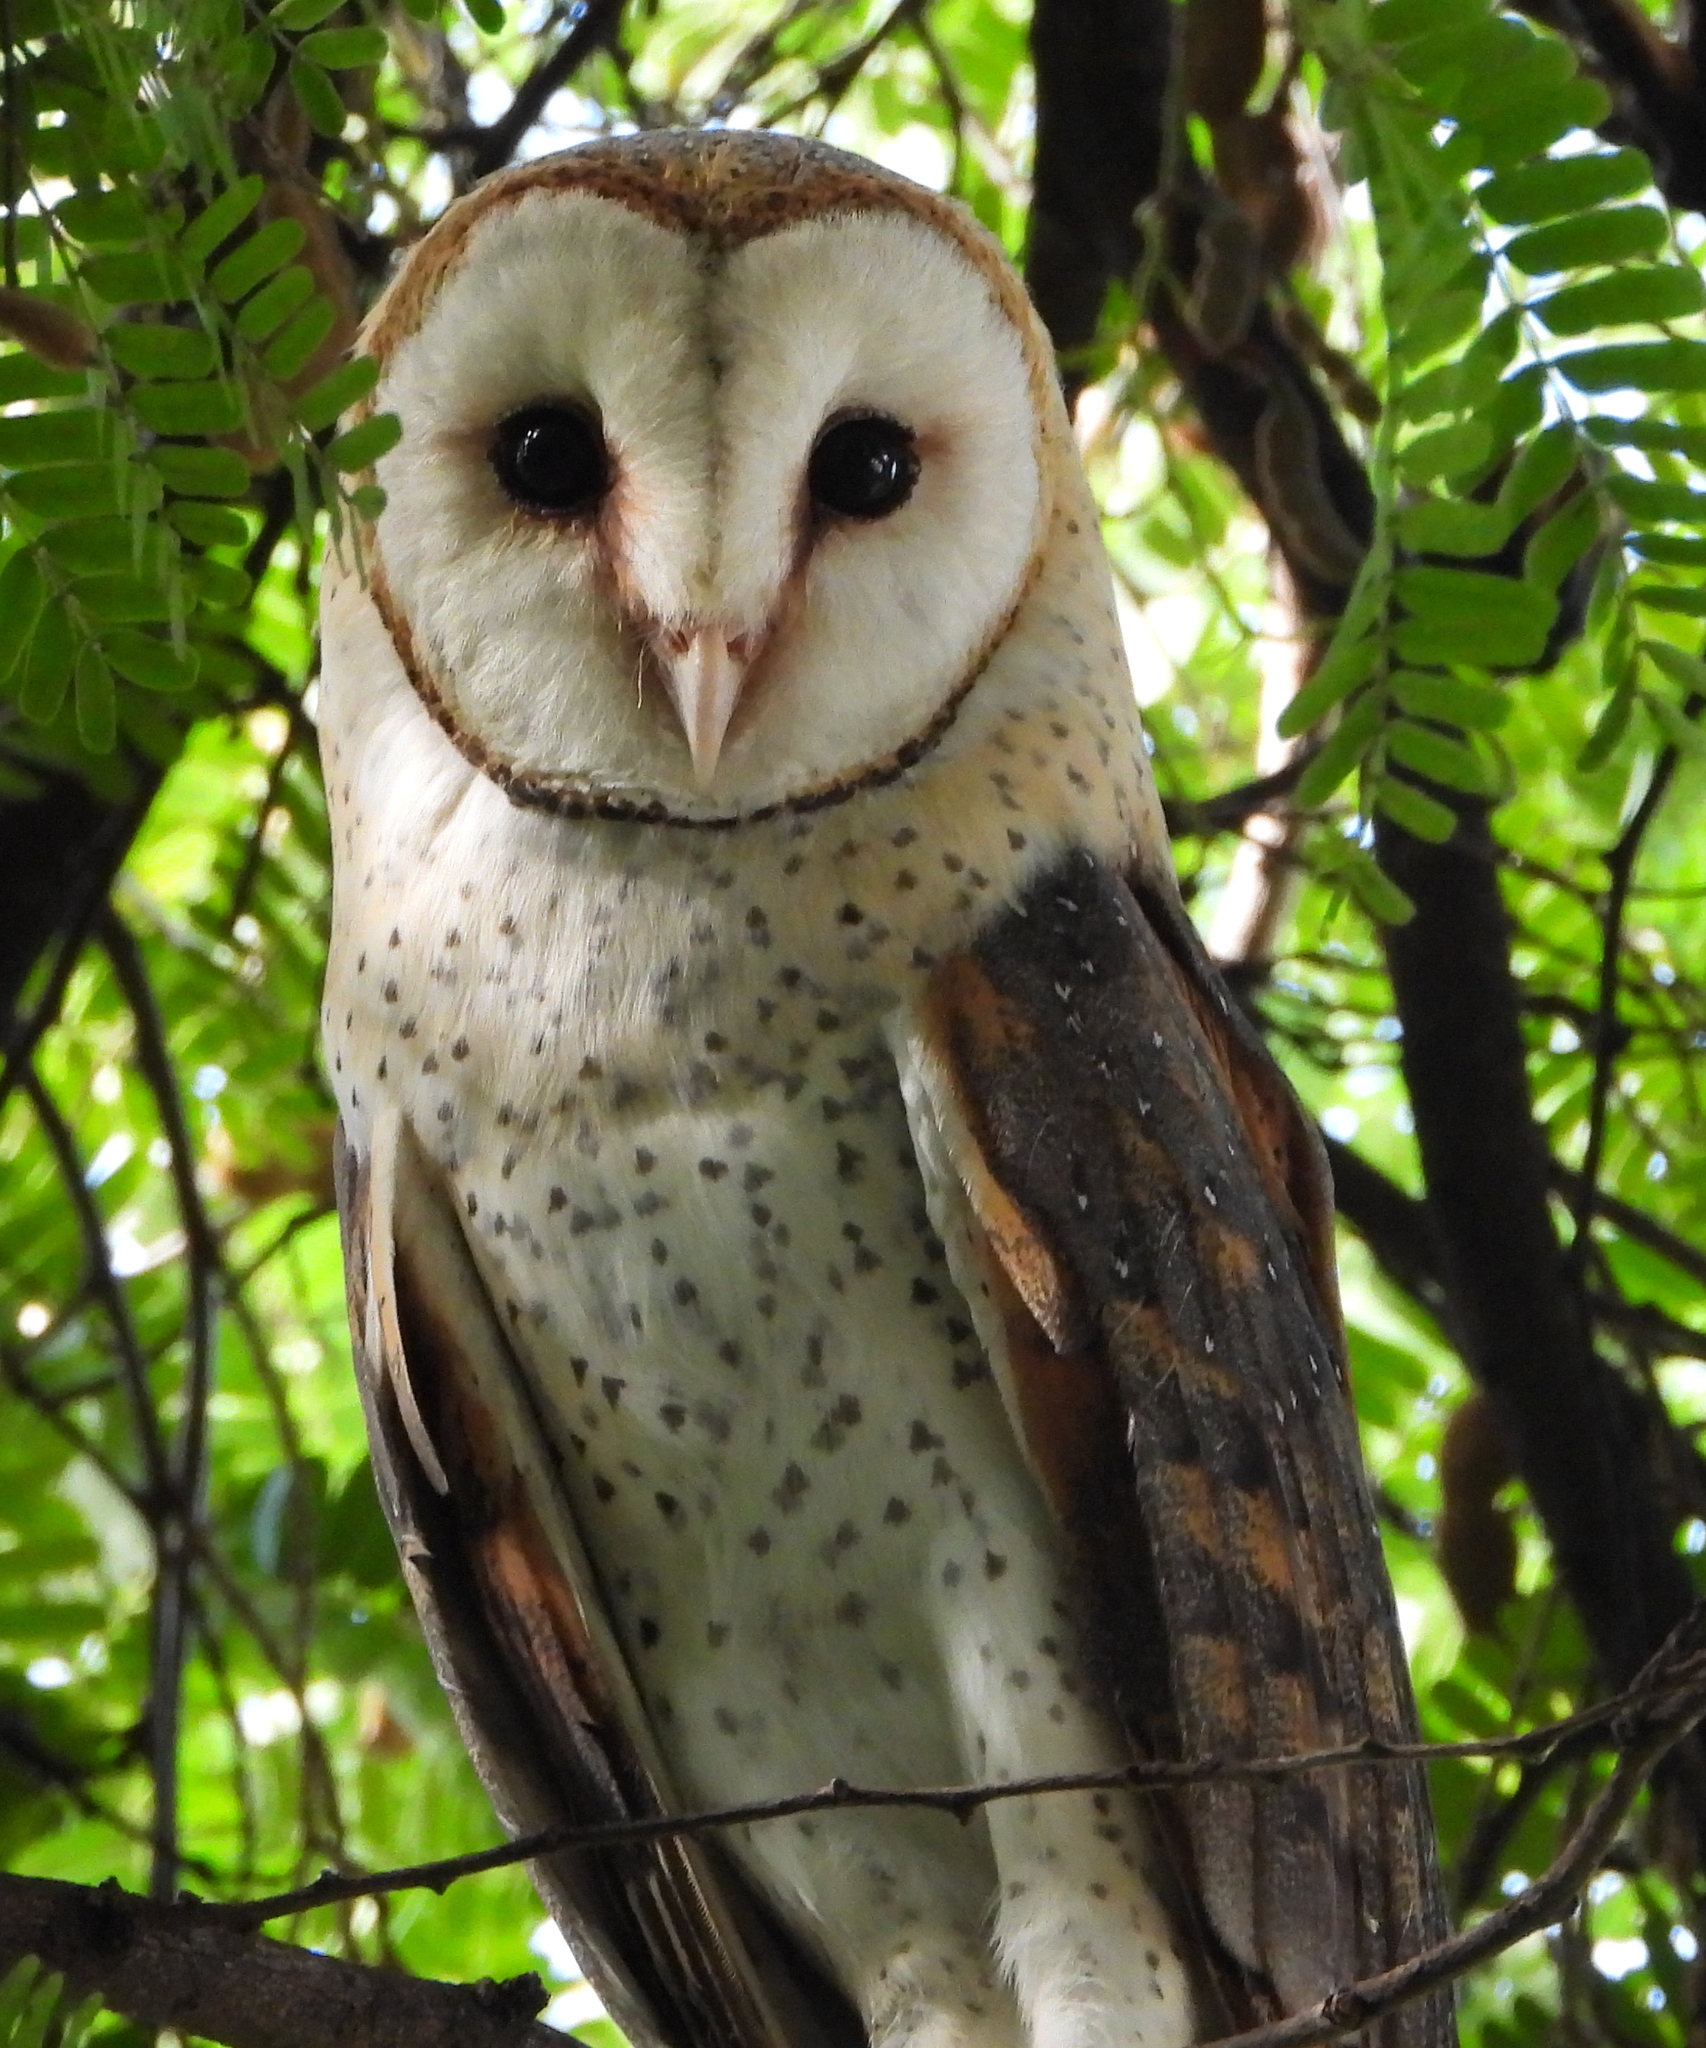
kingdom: Animalia
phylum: Chordata
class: Aves
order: Strigiformes
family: Tytonidae
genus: Tyto
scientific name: Tyto alba
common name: Barn owl
